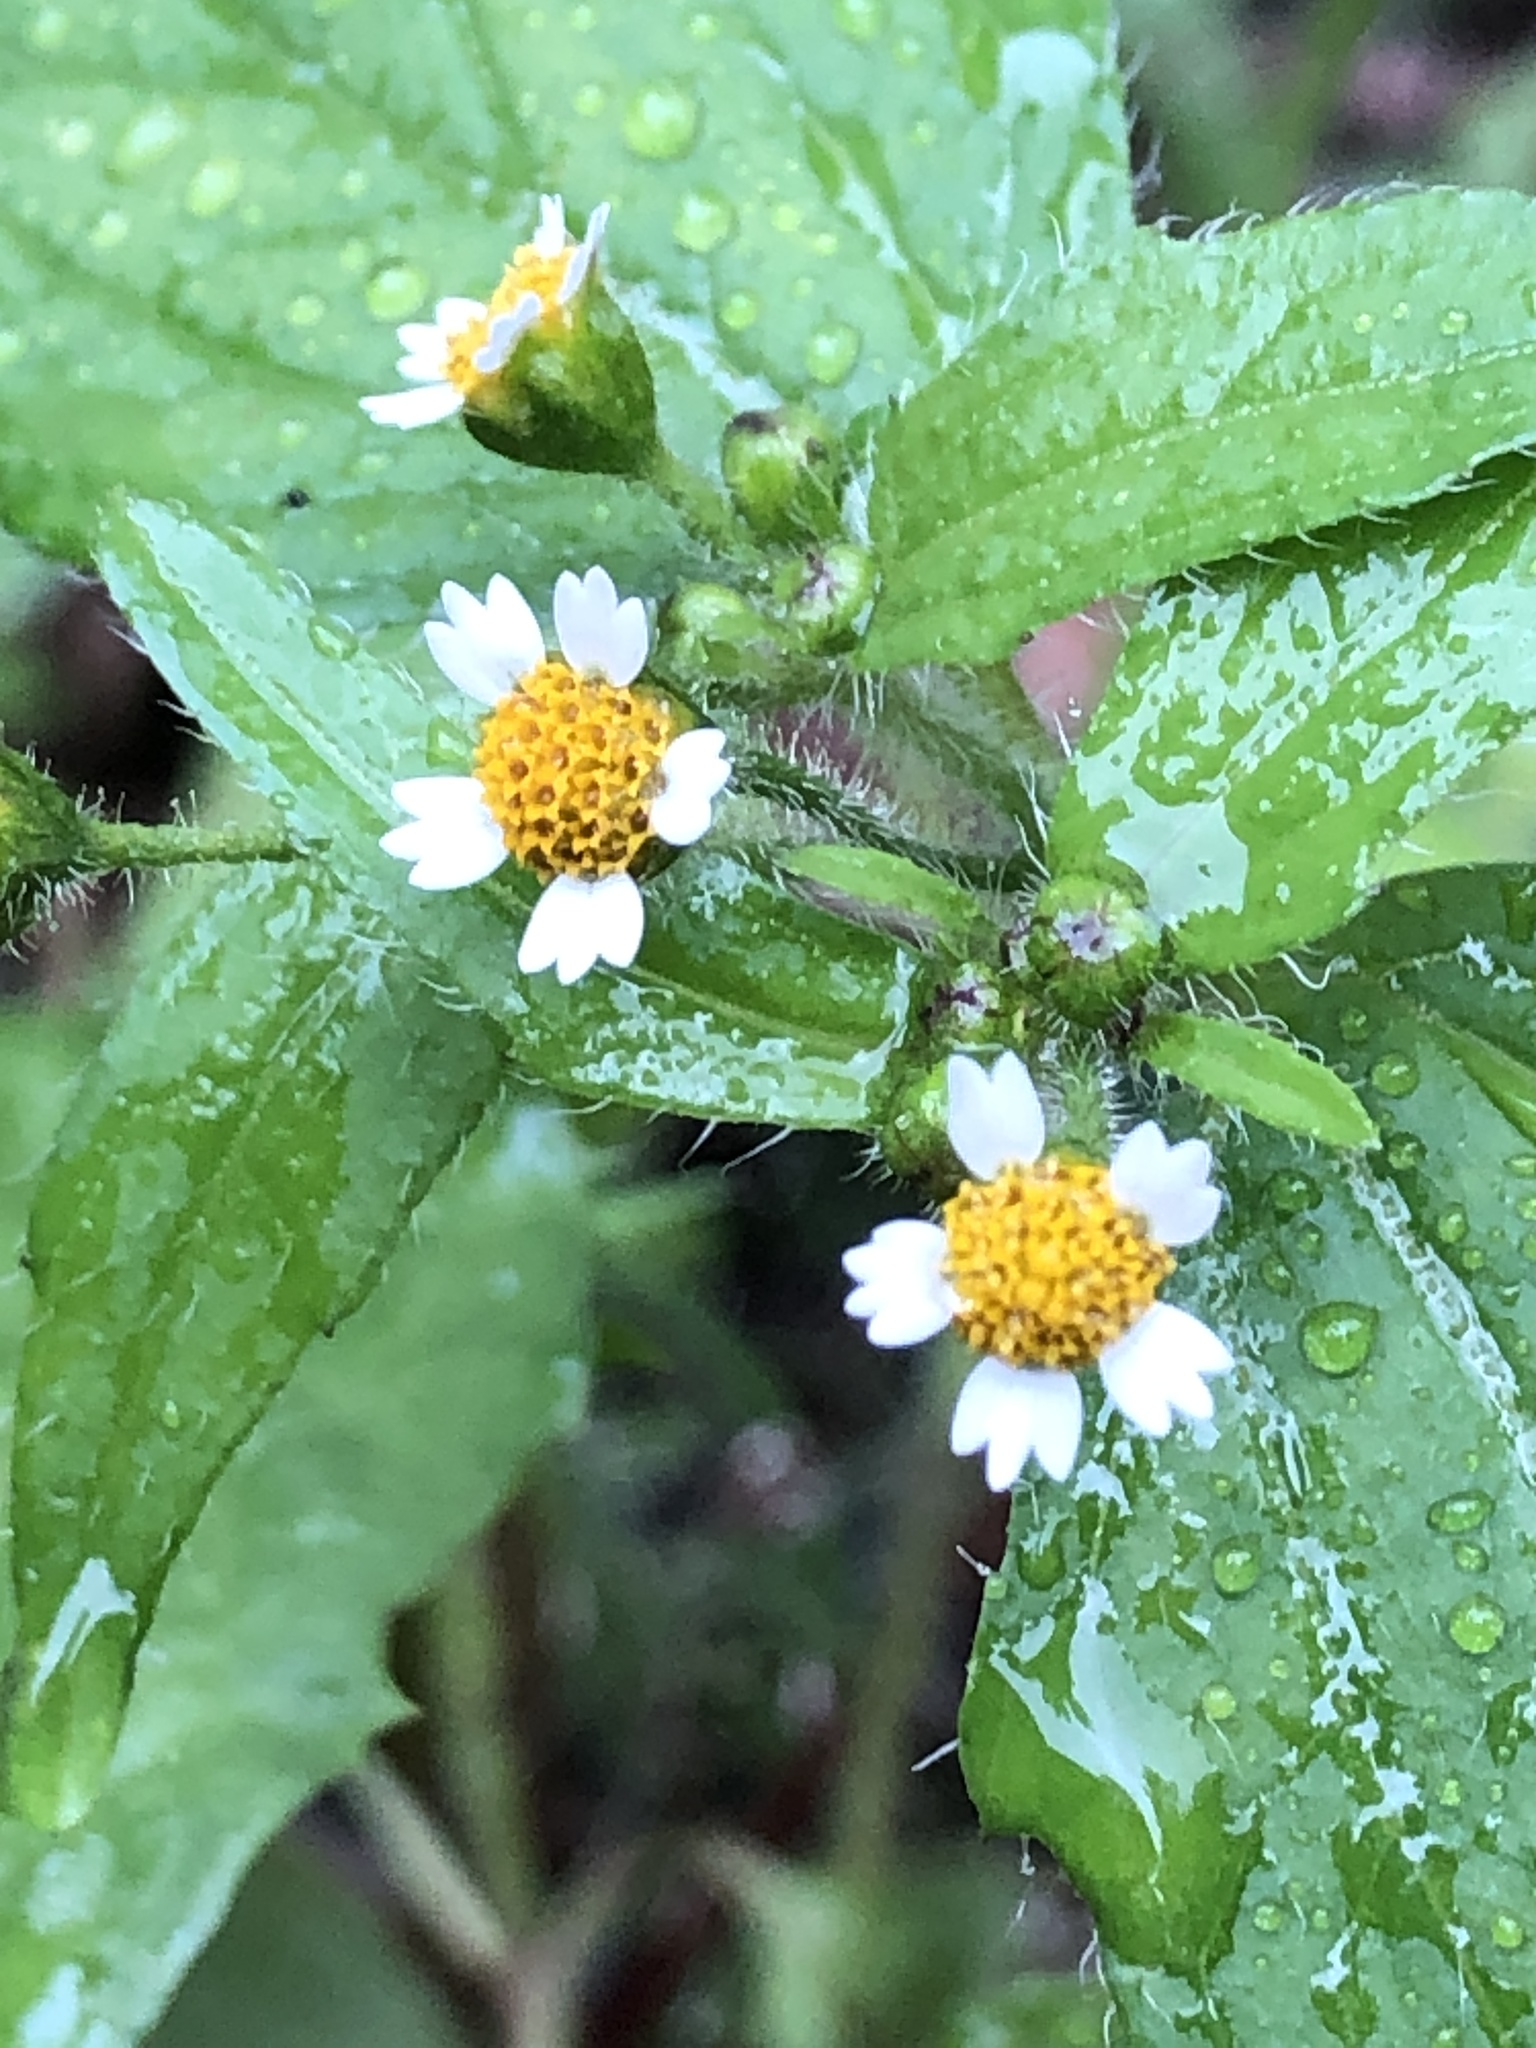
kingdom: Plantae
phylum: Tracheophyta
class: Magnoliopsida
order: Asterales
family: Asteraceae
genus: Galinsoga
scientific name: Galinsoga quadriradiata
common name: Shaggy soldier
